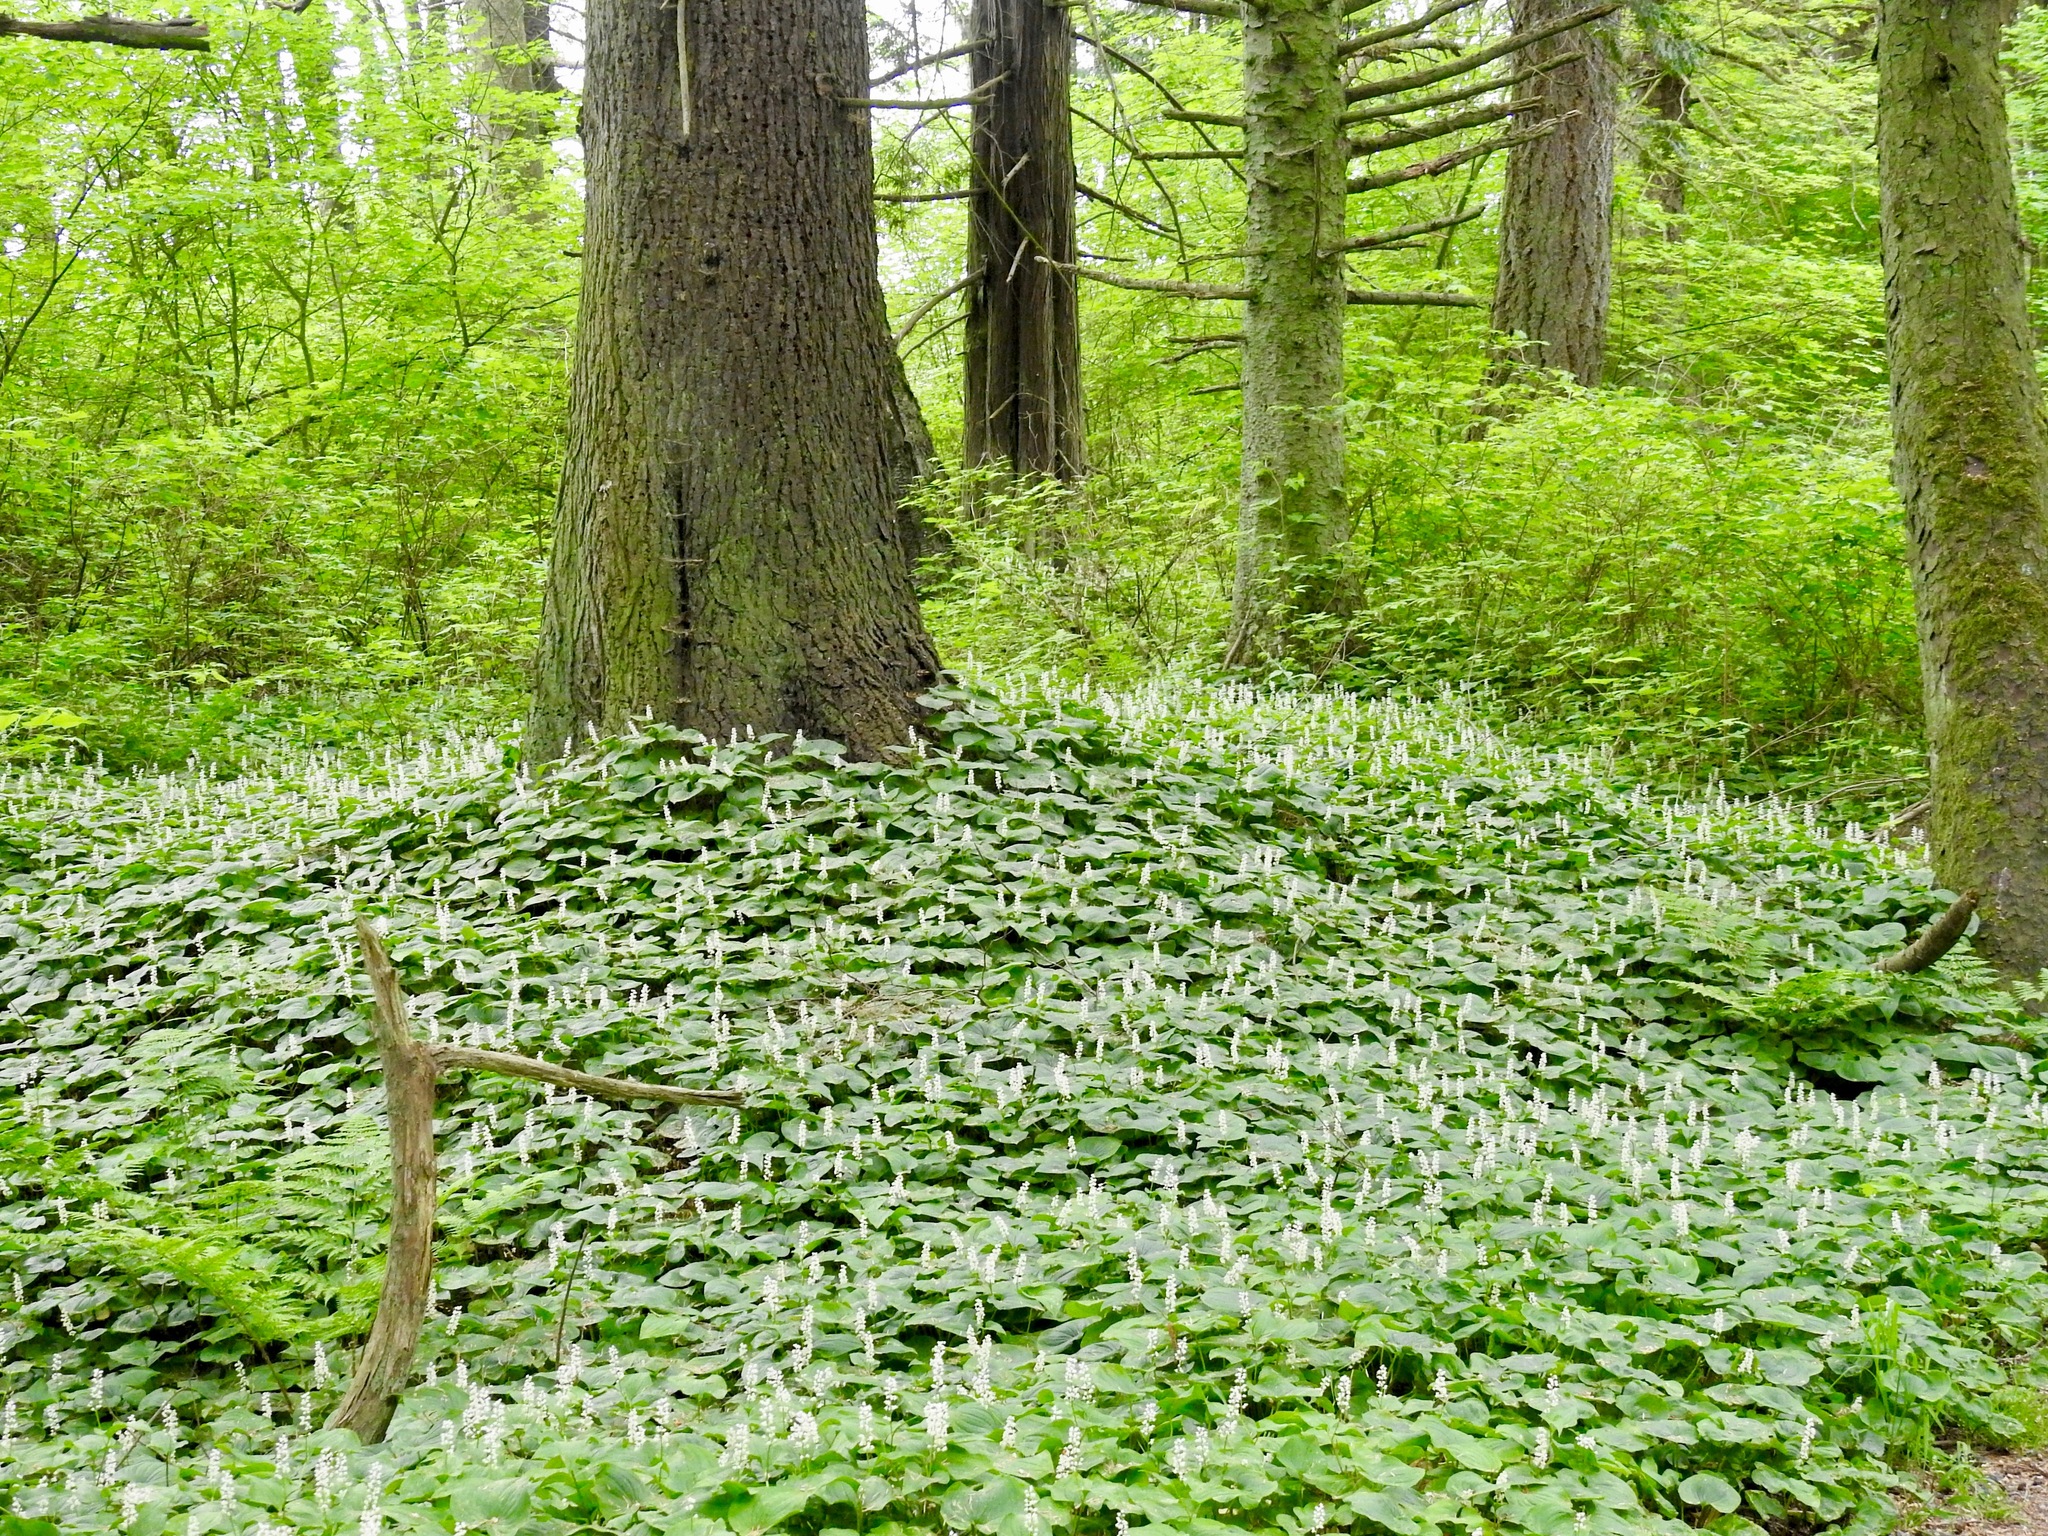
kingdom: Plantae
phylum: Tracheophyta
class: Liliopsida
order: Asparagales
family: Asparagaceae
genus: Maianthemum
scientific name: Maianthemum dilatatum
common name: False lily-of-the-valley
